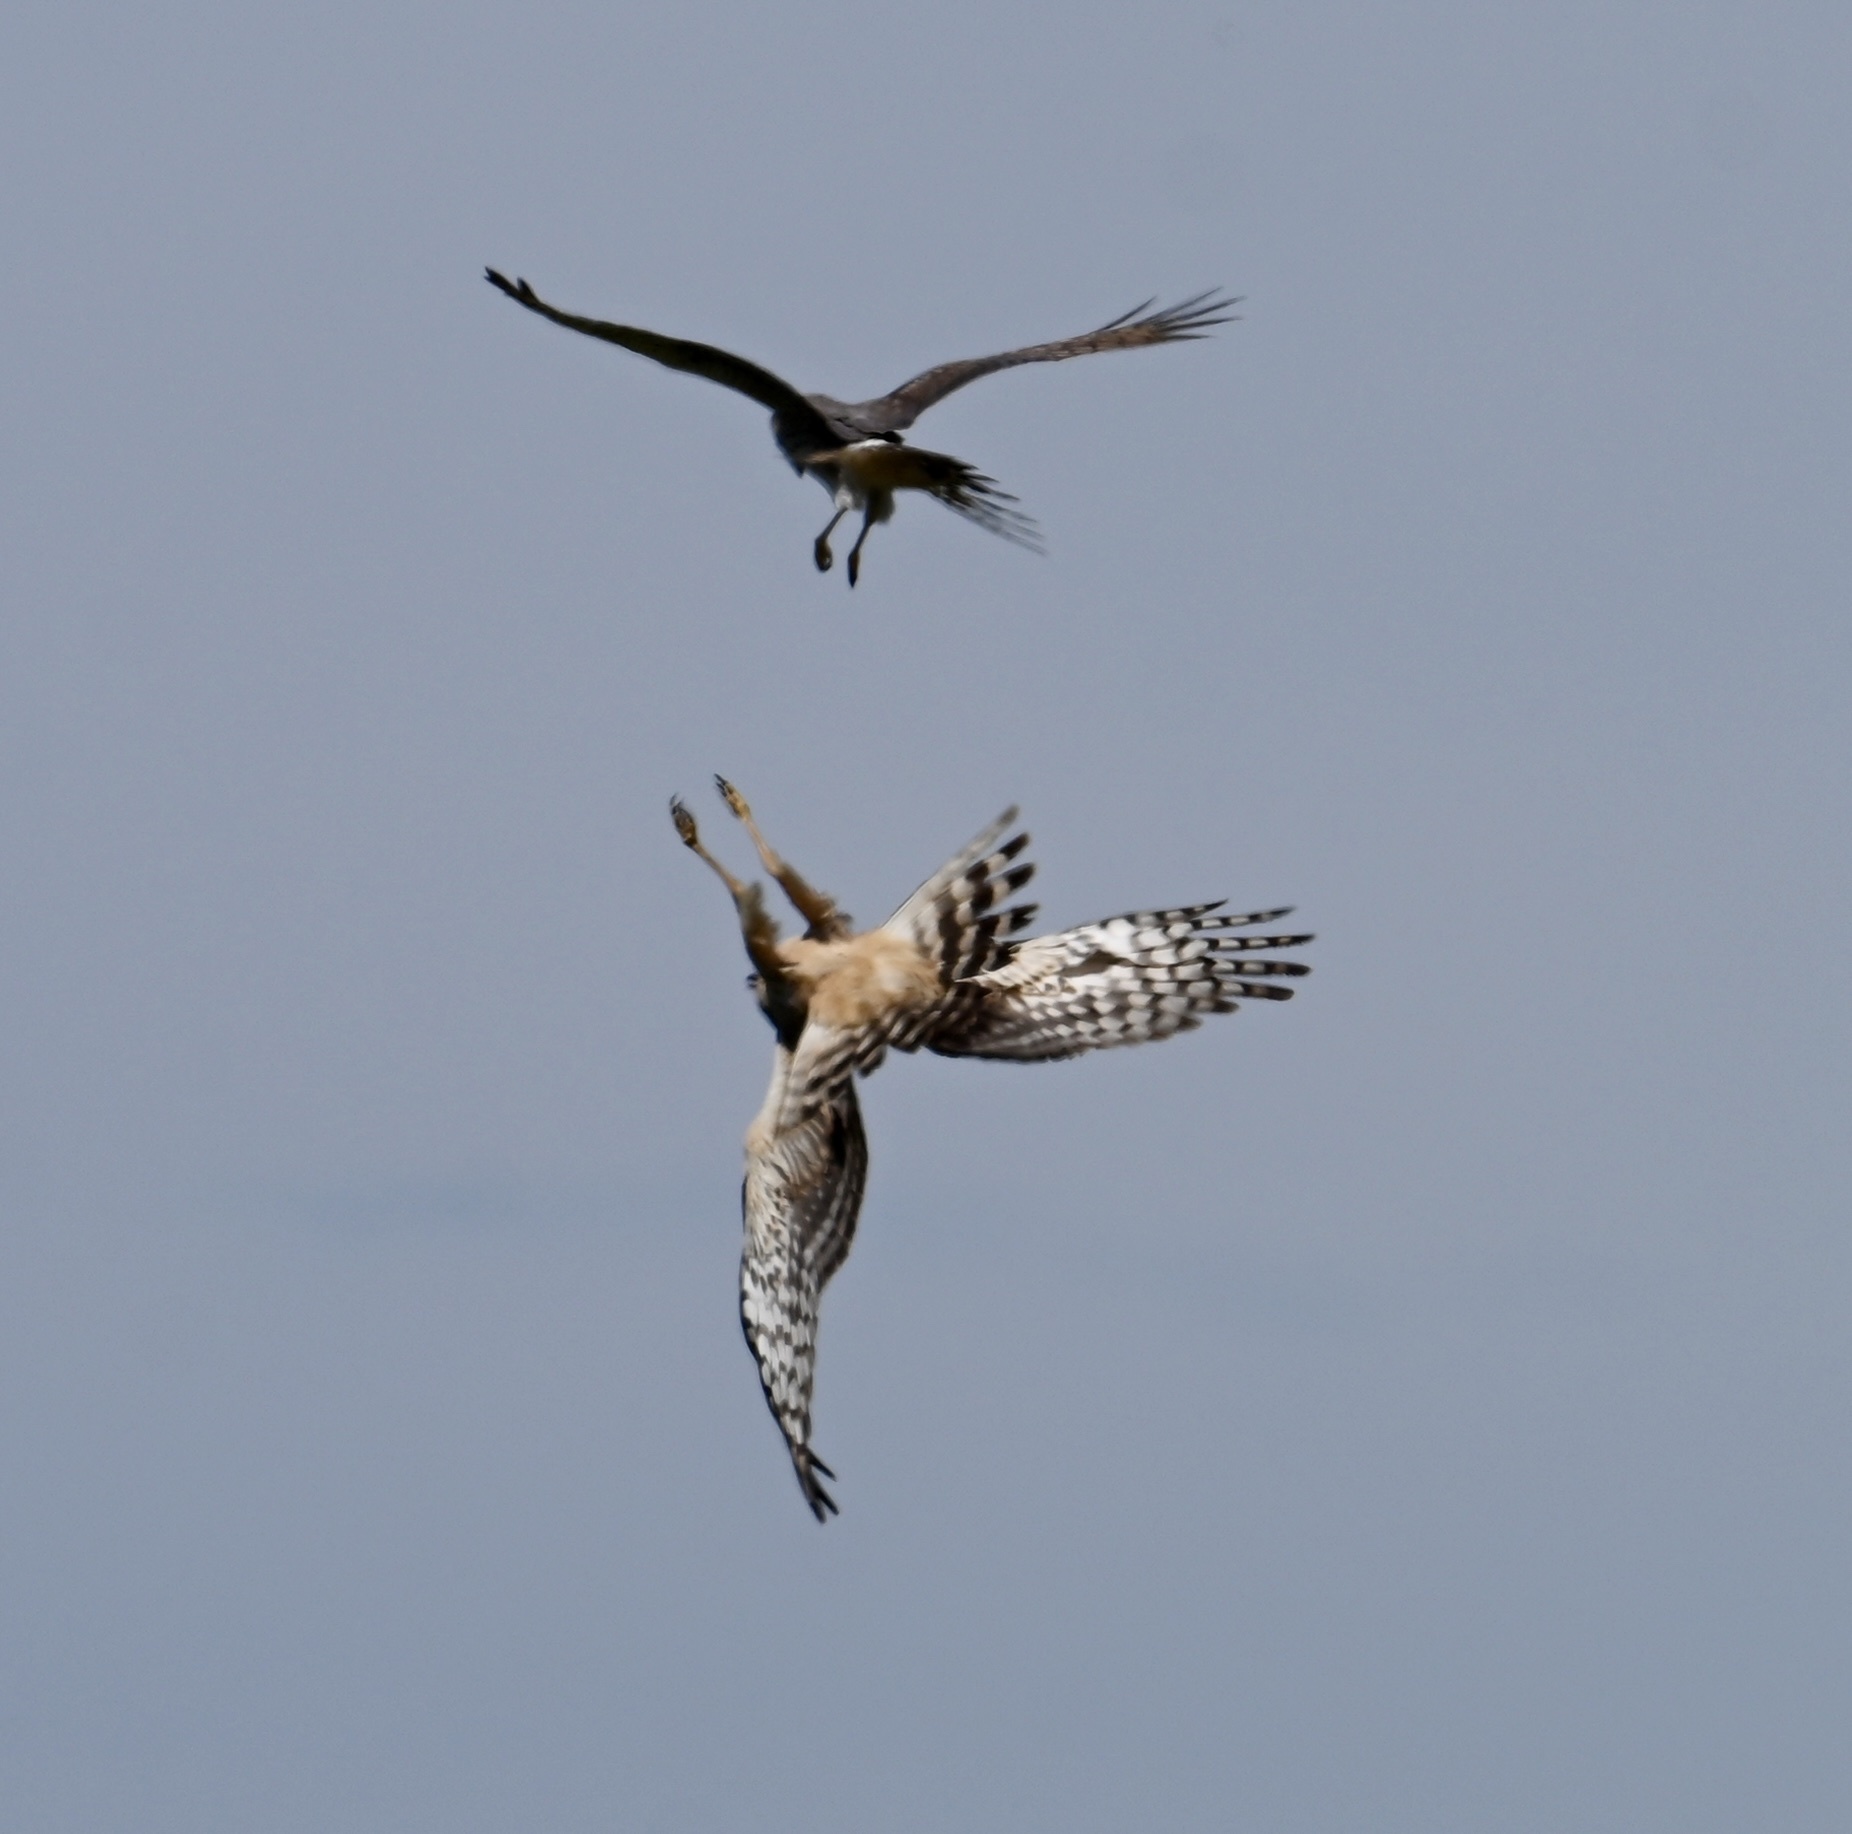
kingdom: Animalia
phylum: Chordata
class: Aves
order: Accipitriformes
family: Accipitridae
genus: Circus
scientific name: Circus cyaneus
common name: Hen harrier
